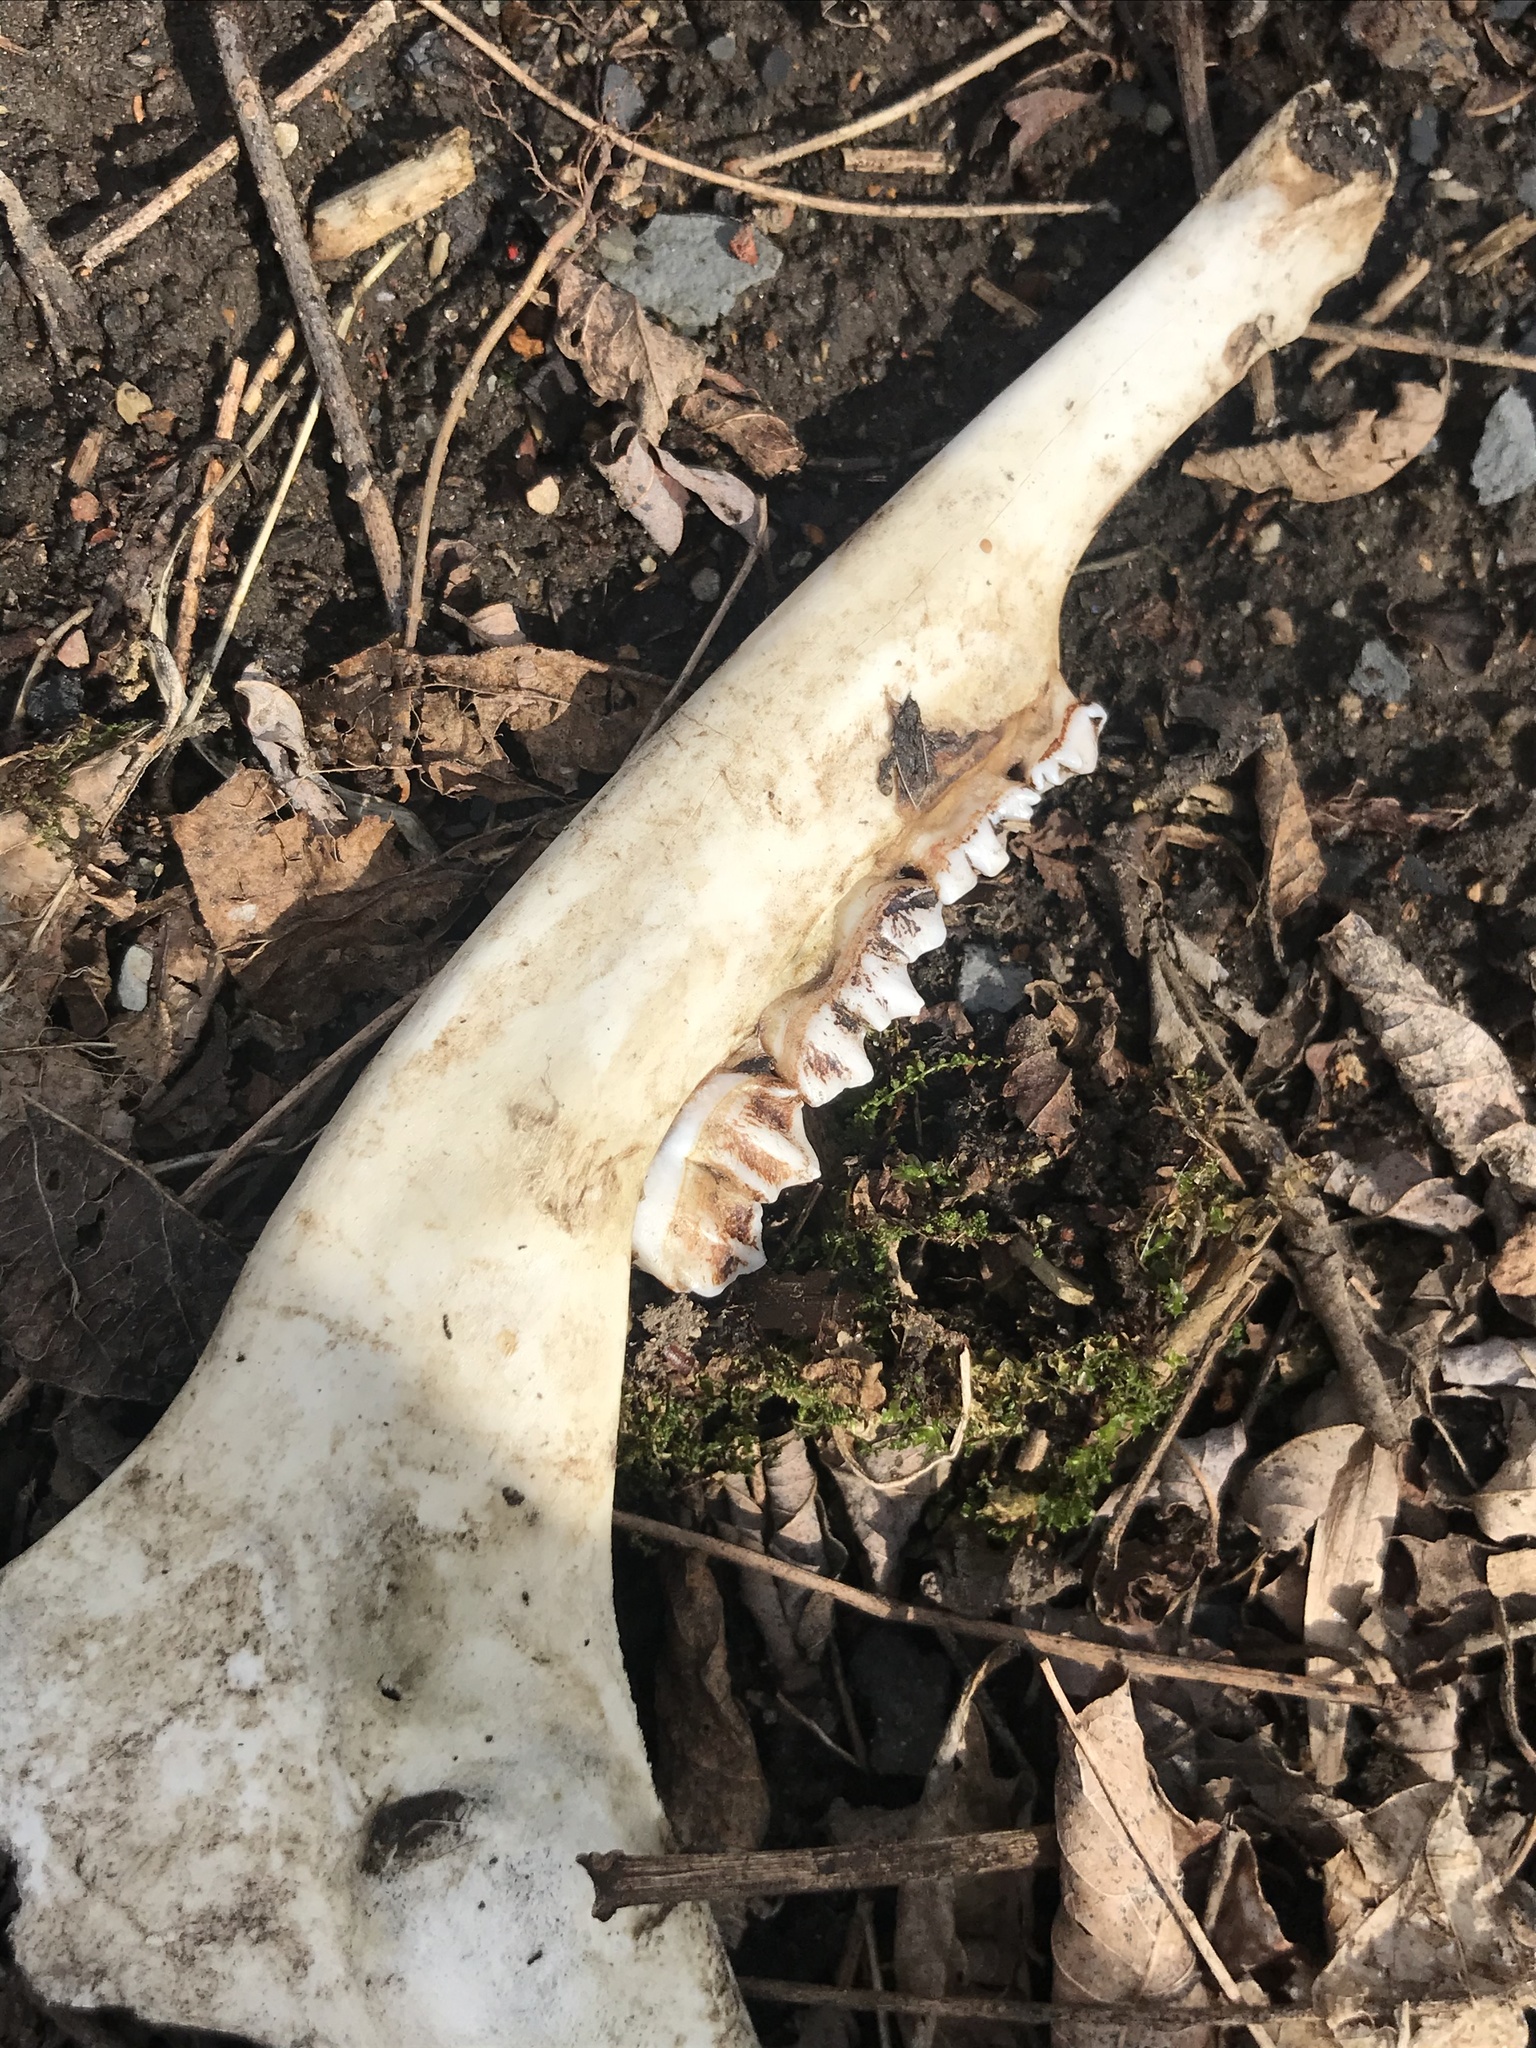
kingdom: Animalia
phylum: Chordata
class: Mammalia
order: Artiodactyla
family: Cervidae
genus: Odocoileus
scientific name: Odocoileus virginianus
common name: White-tailed deer
